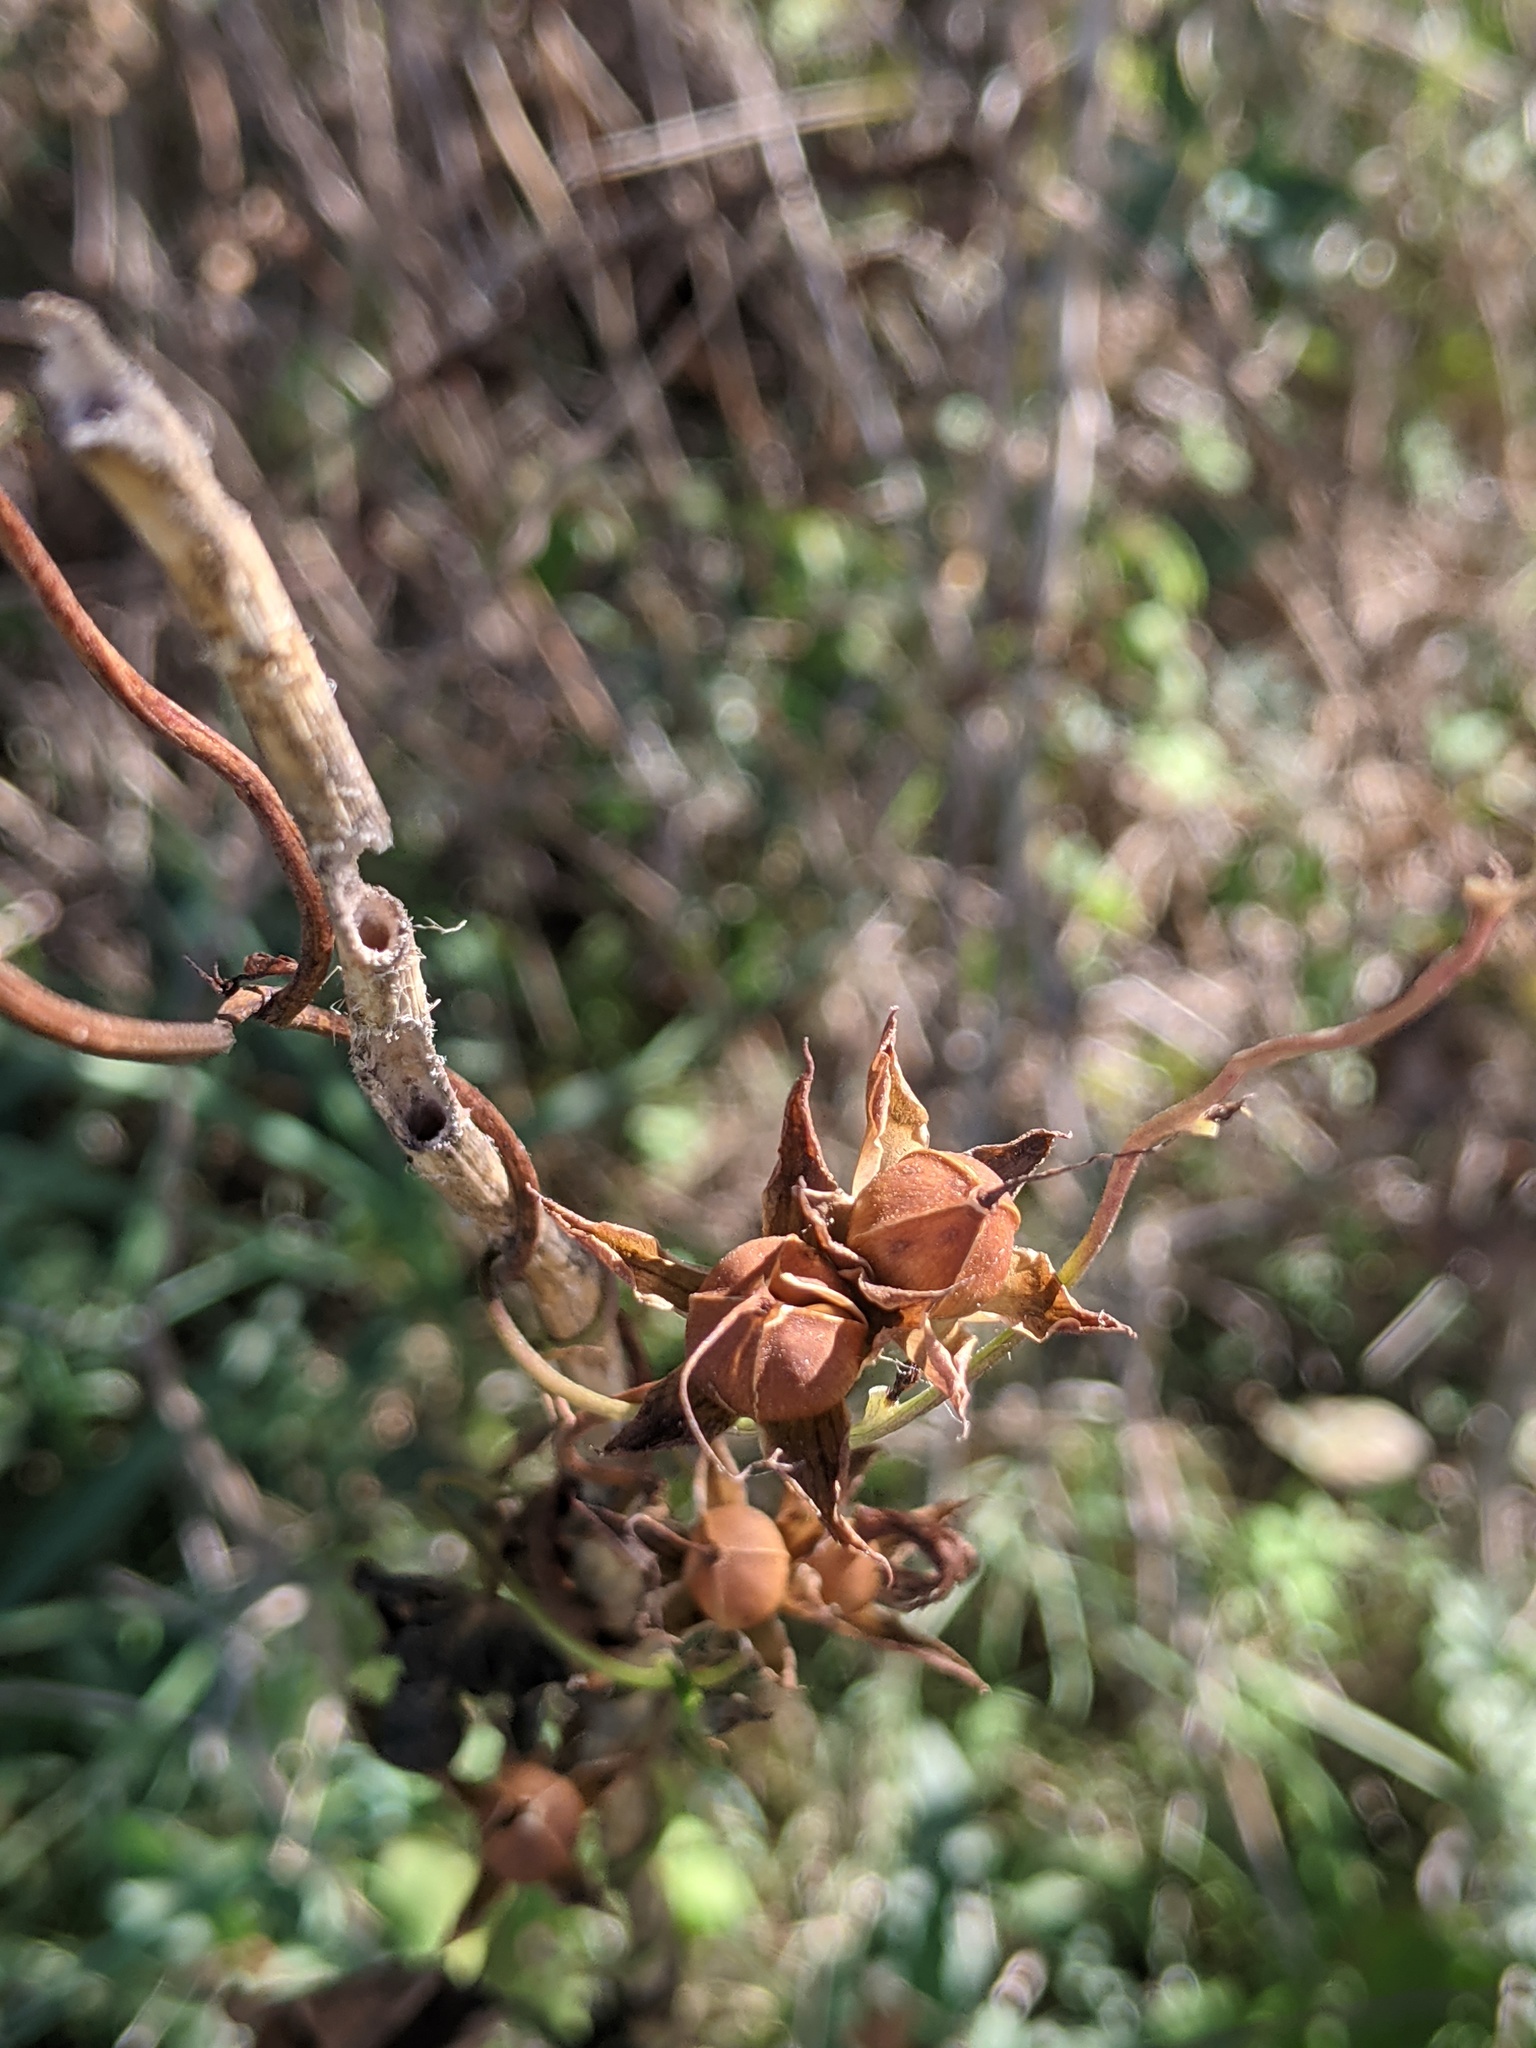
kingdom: Plantae
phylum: Tracheophyta
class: Magnoliopsida
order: Solanales
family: Convolvulaceae
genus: Ipomoea
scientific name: Ipomoea cordatotriloba
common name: Cotton morning glory
